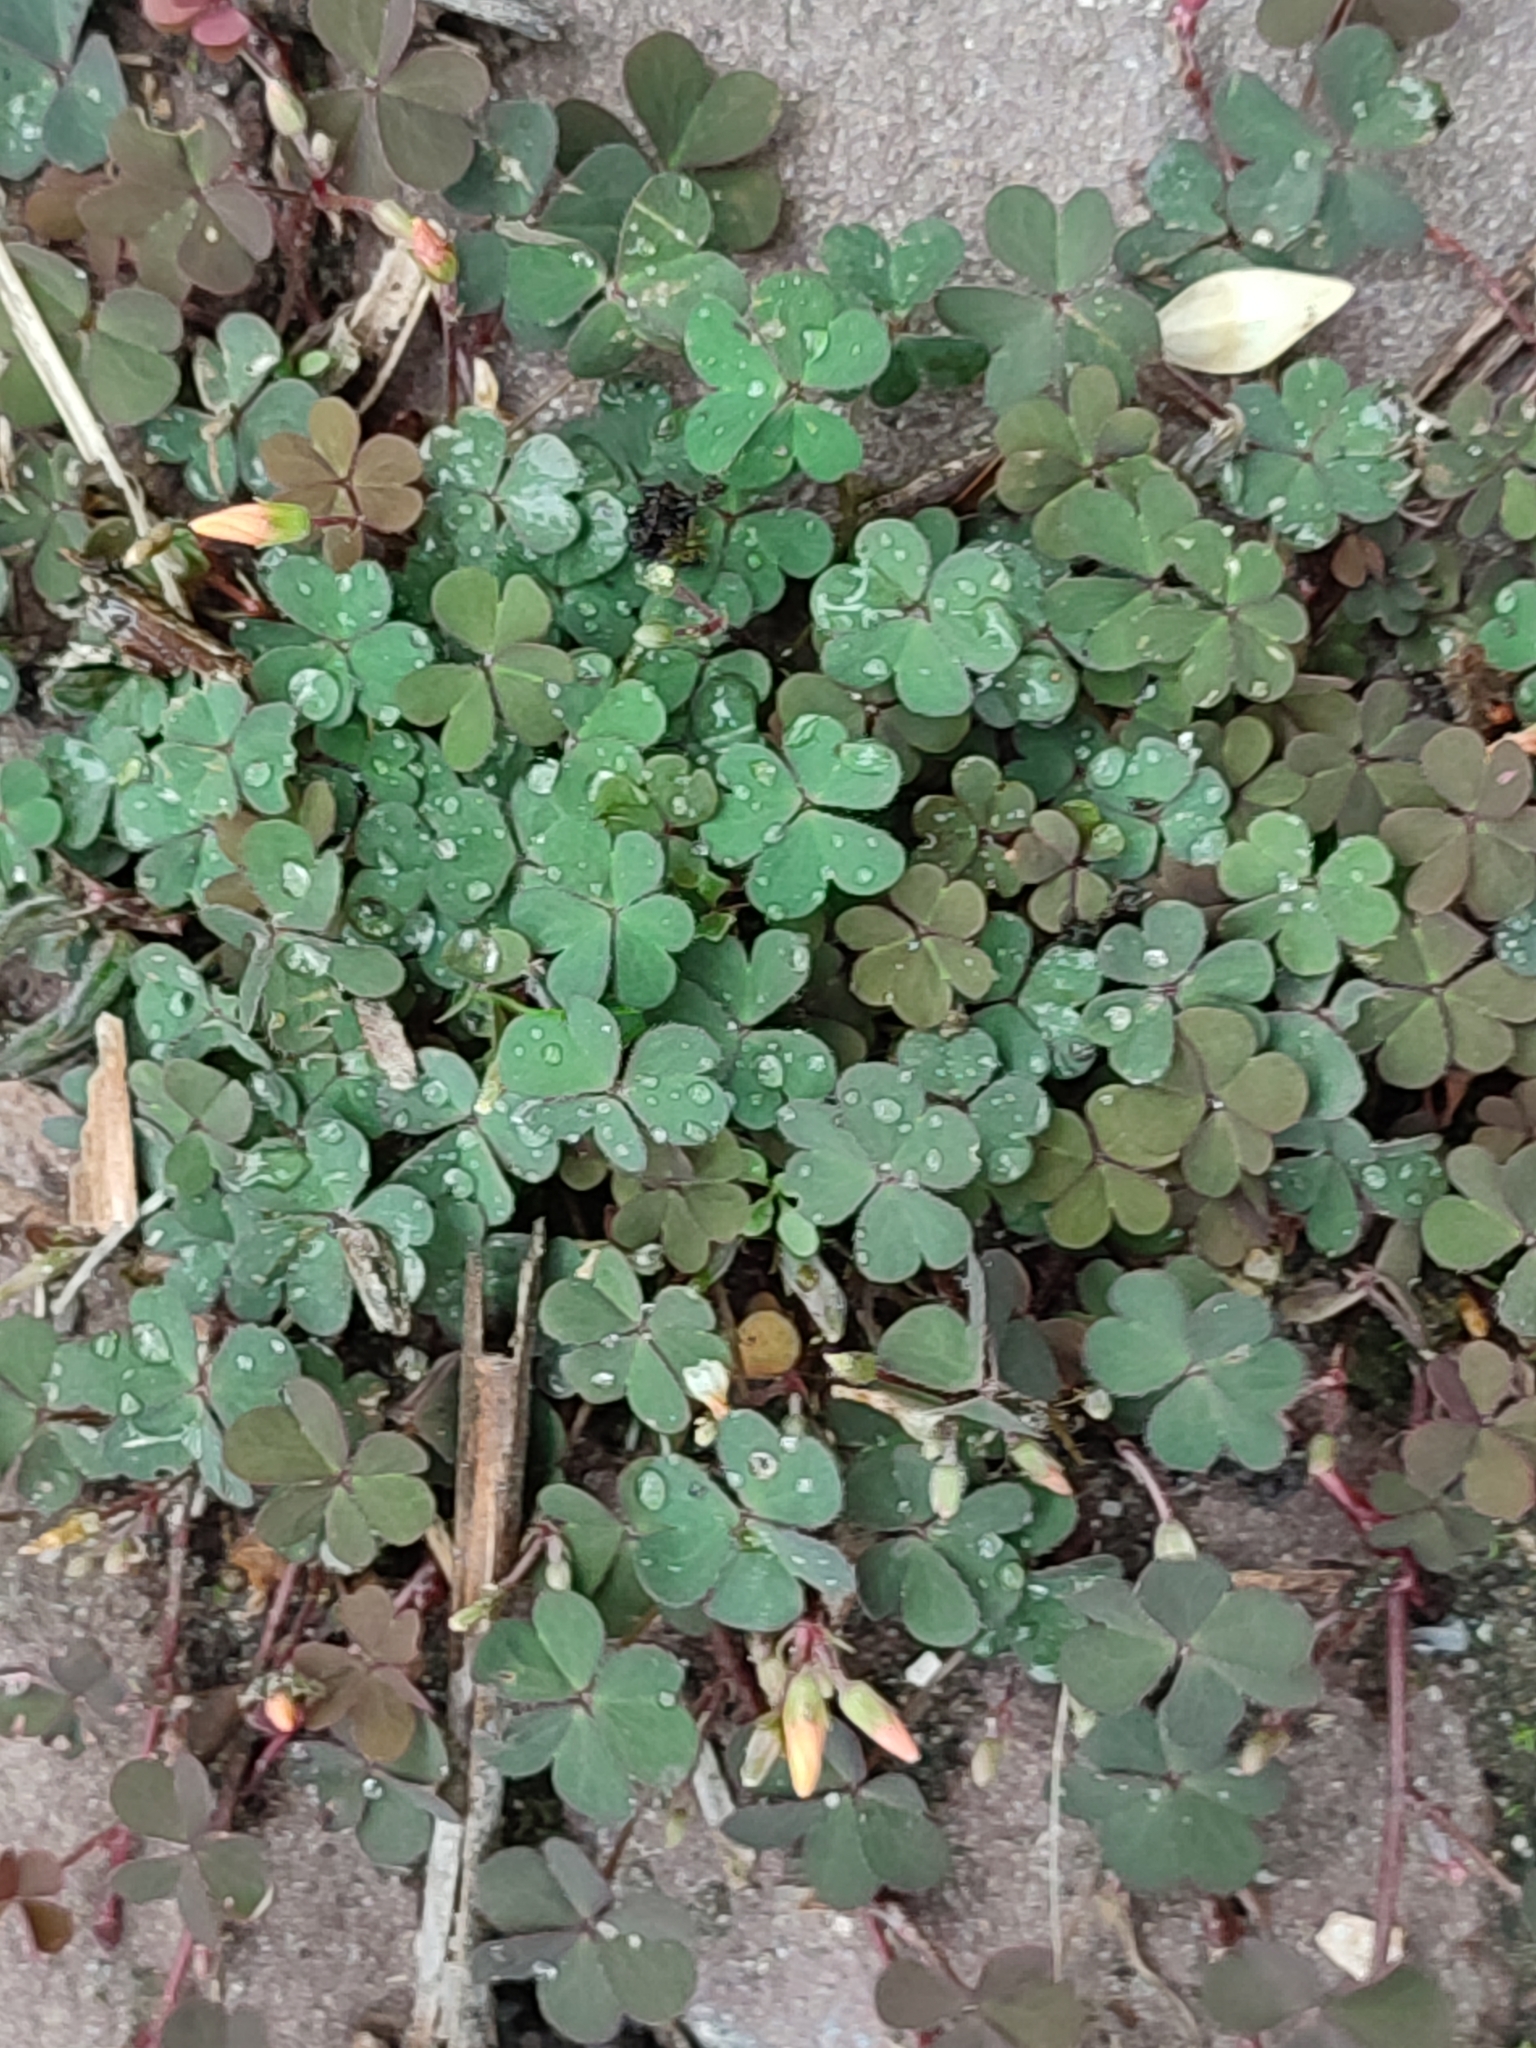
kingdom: Plantae
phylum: Tracheophyta
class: Magnoliopsida
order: Oxalidales
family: Oxalidaceae
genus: Oxalis
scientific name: Oxalis corniculata
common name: Procumbent yellow-sorrel
